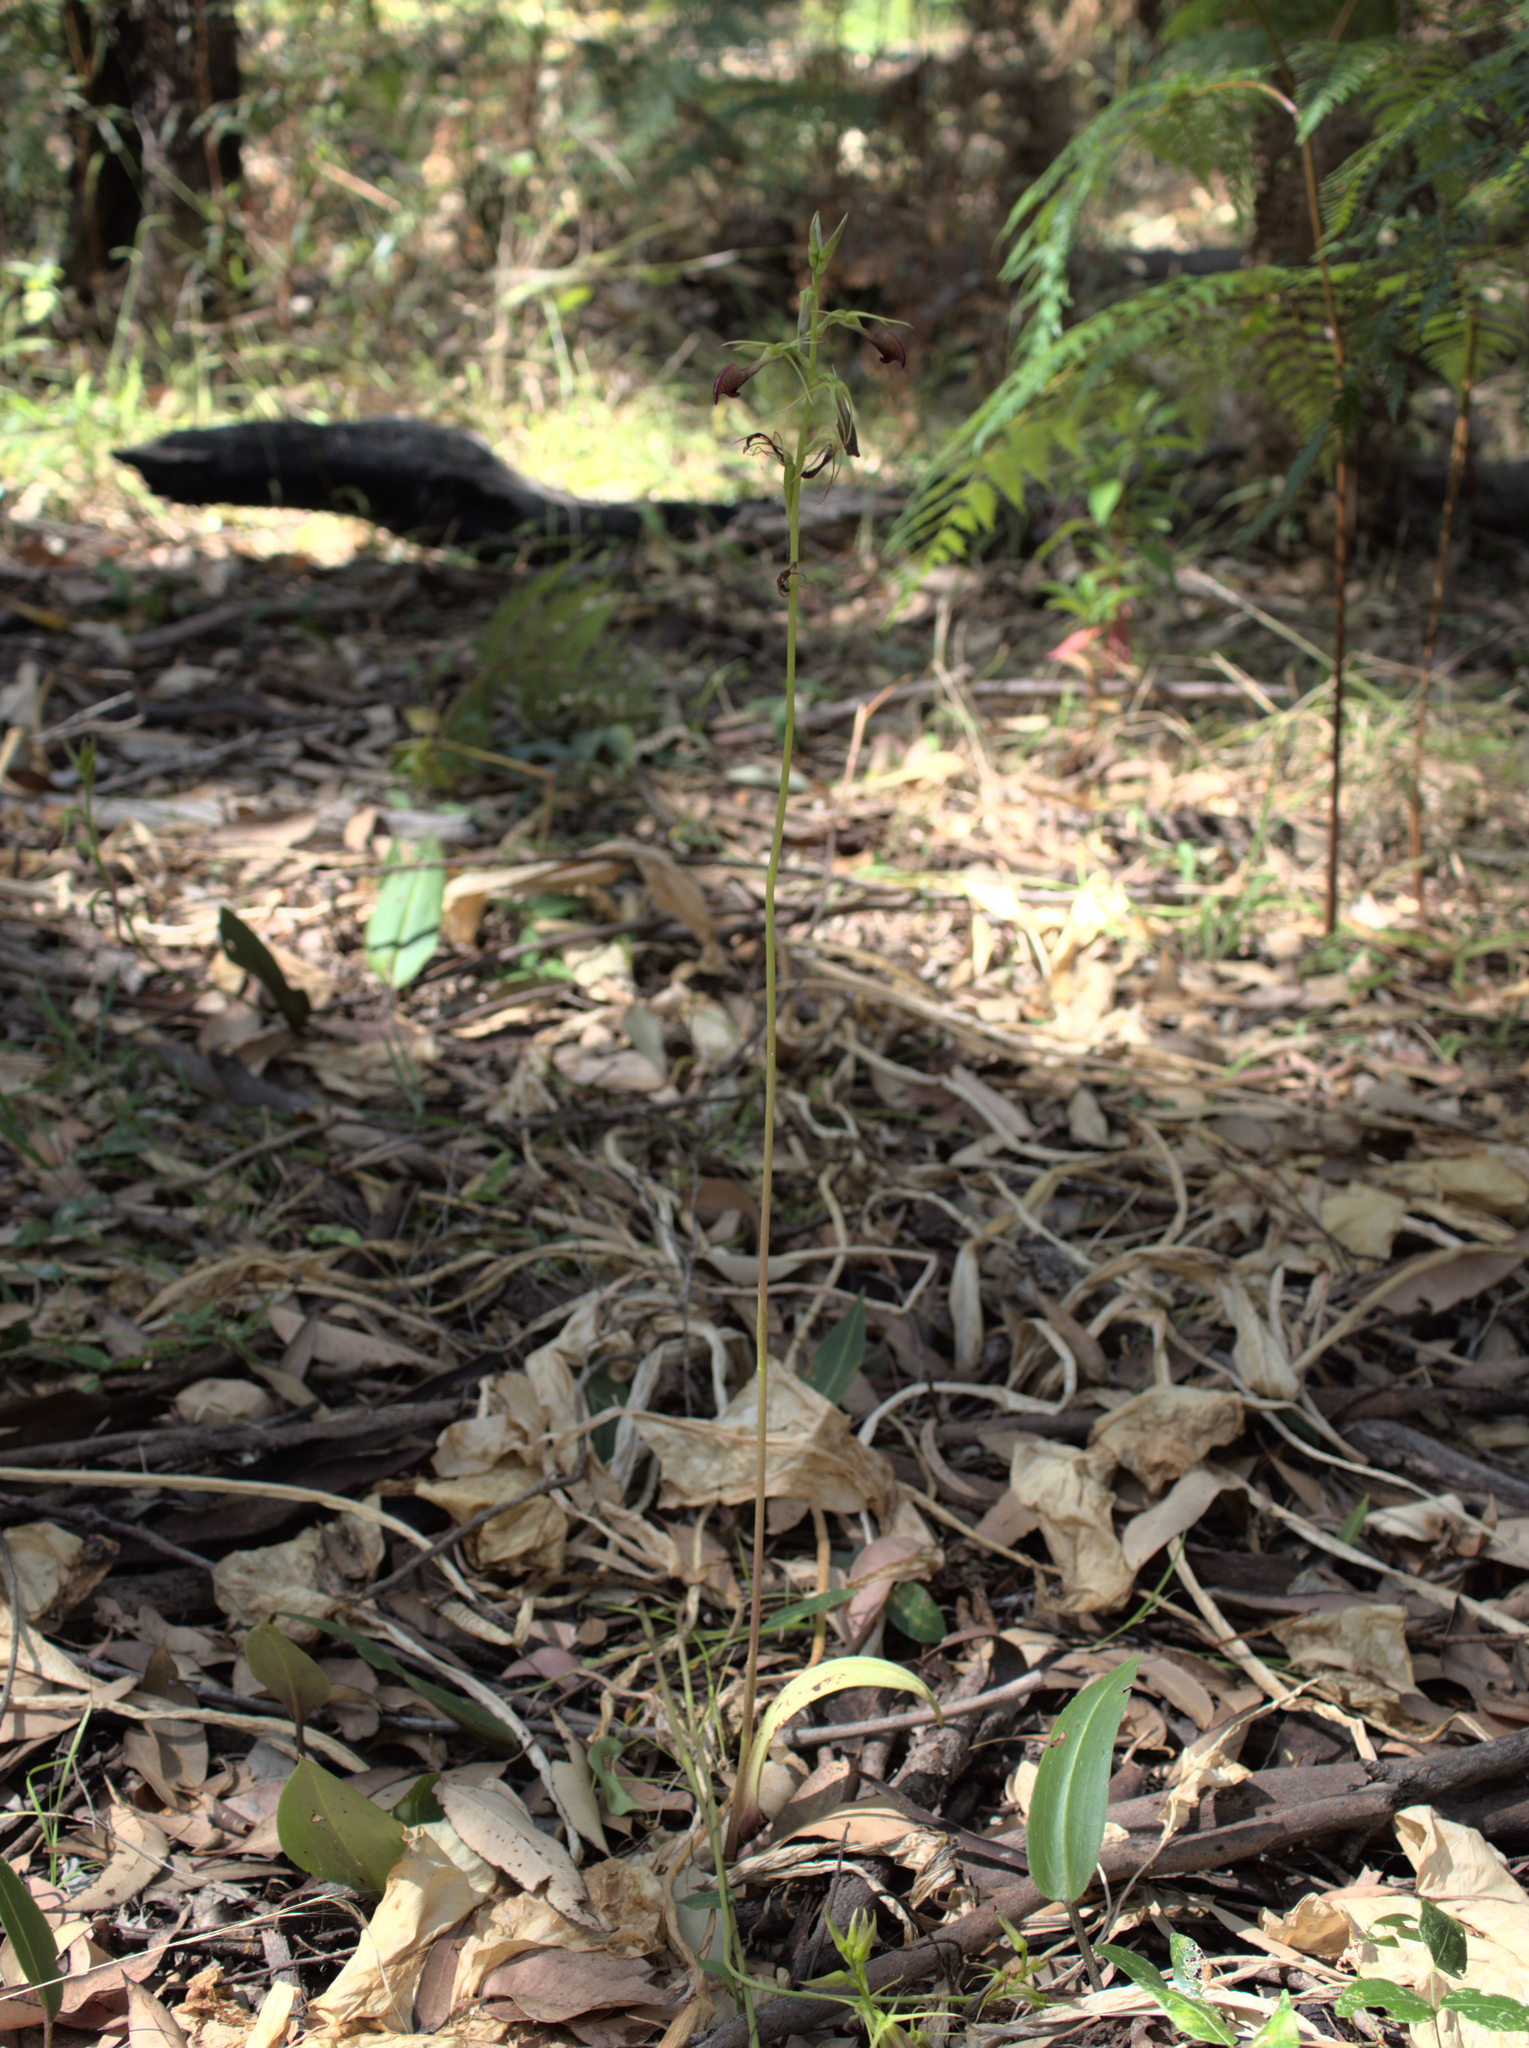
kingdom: Plantae
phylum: Tracheophyta
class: Liliopsida
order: Asparagales
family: Orchidaceae
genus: Cryptostylis
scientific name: Cryptostylis ovata
